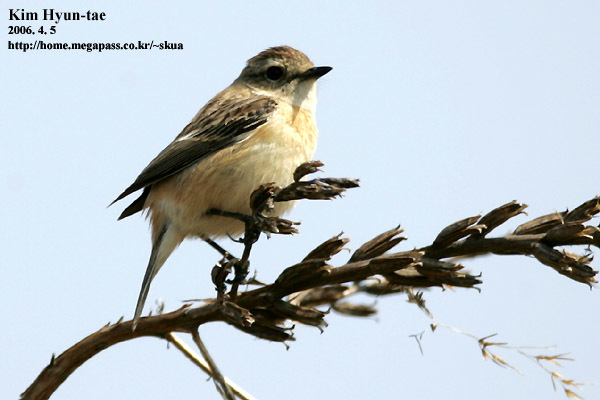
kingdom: Animalia
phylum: Chordata
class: Aves
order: Passeriformes
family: Muscicapidae
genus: Saxicola
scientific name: Saxicola stejnegeri
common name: Stejneger's stonechat
